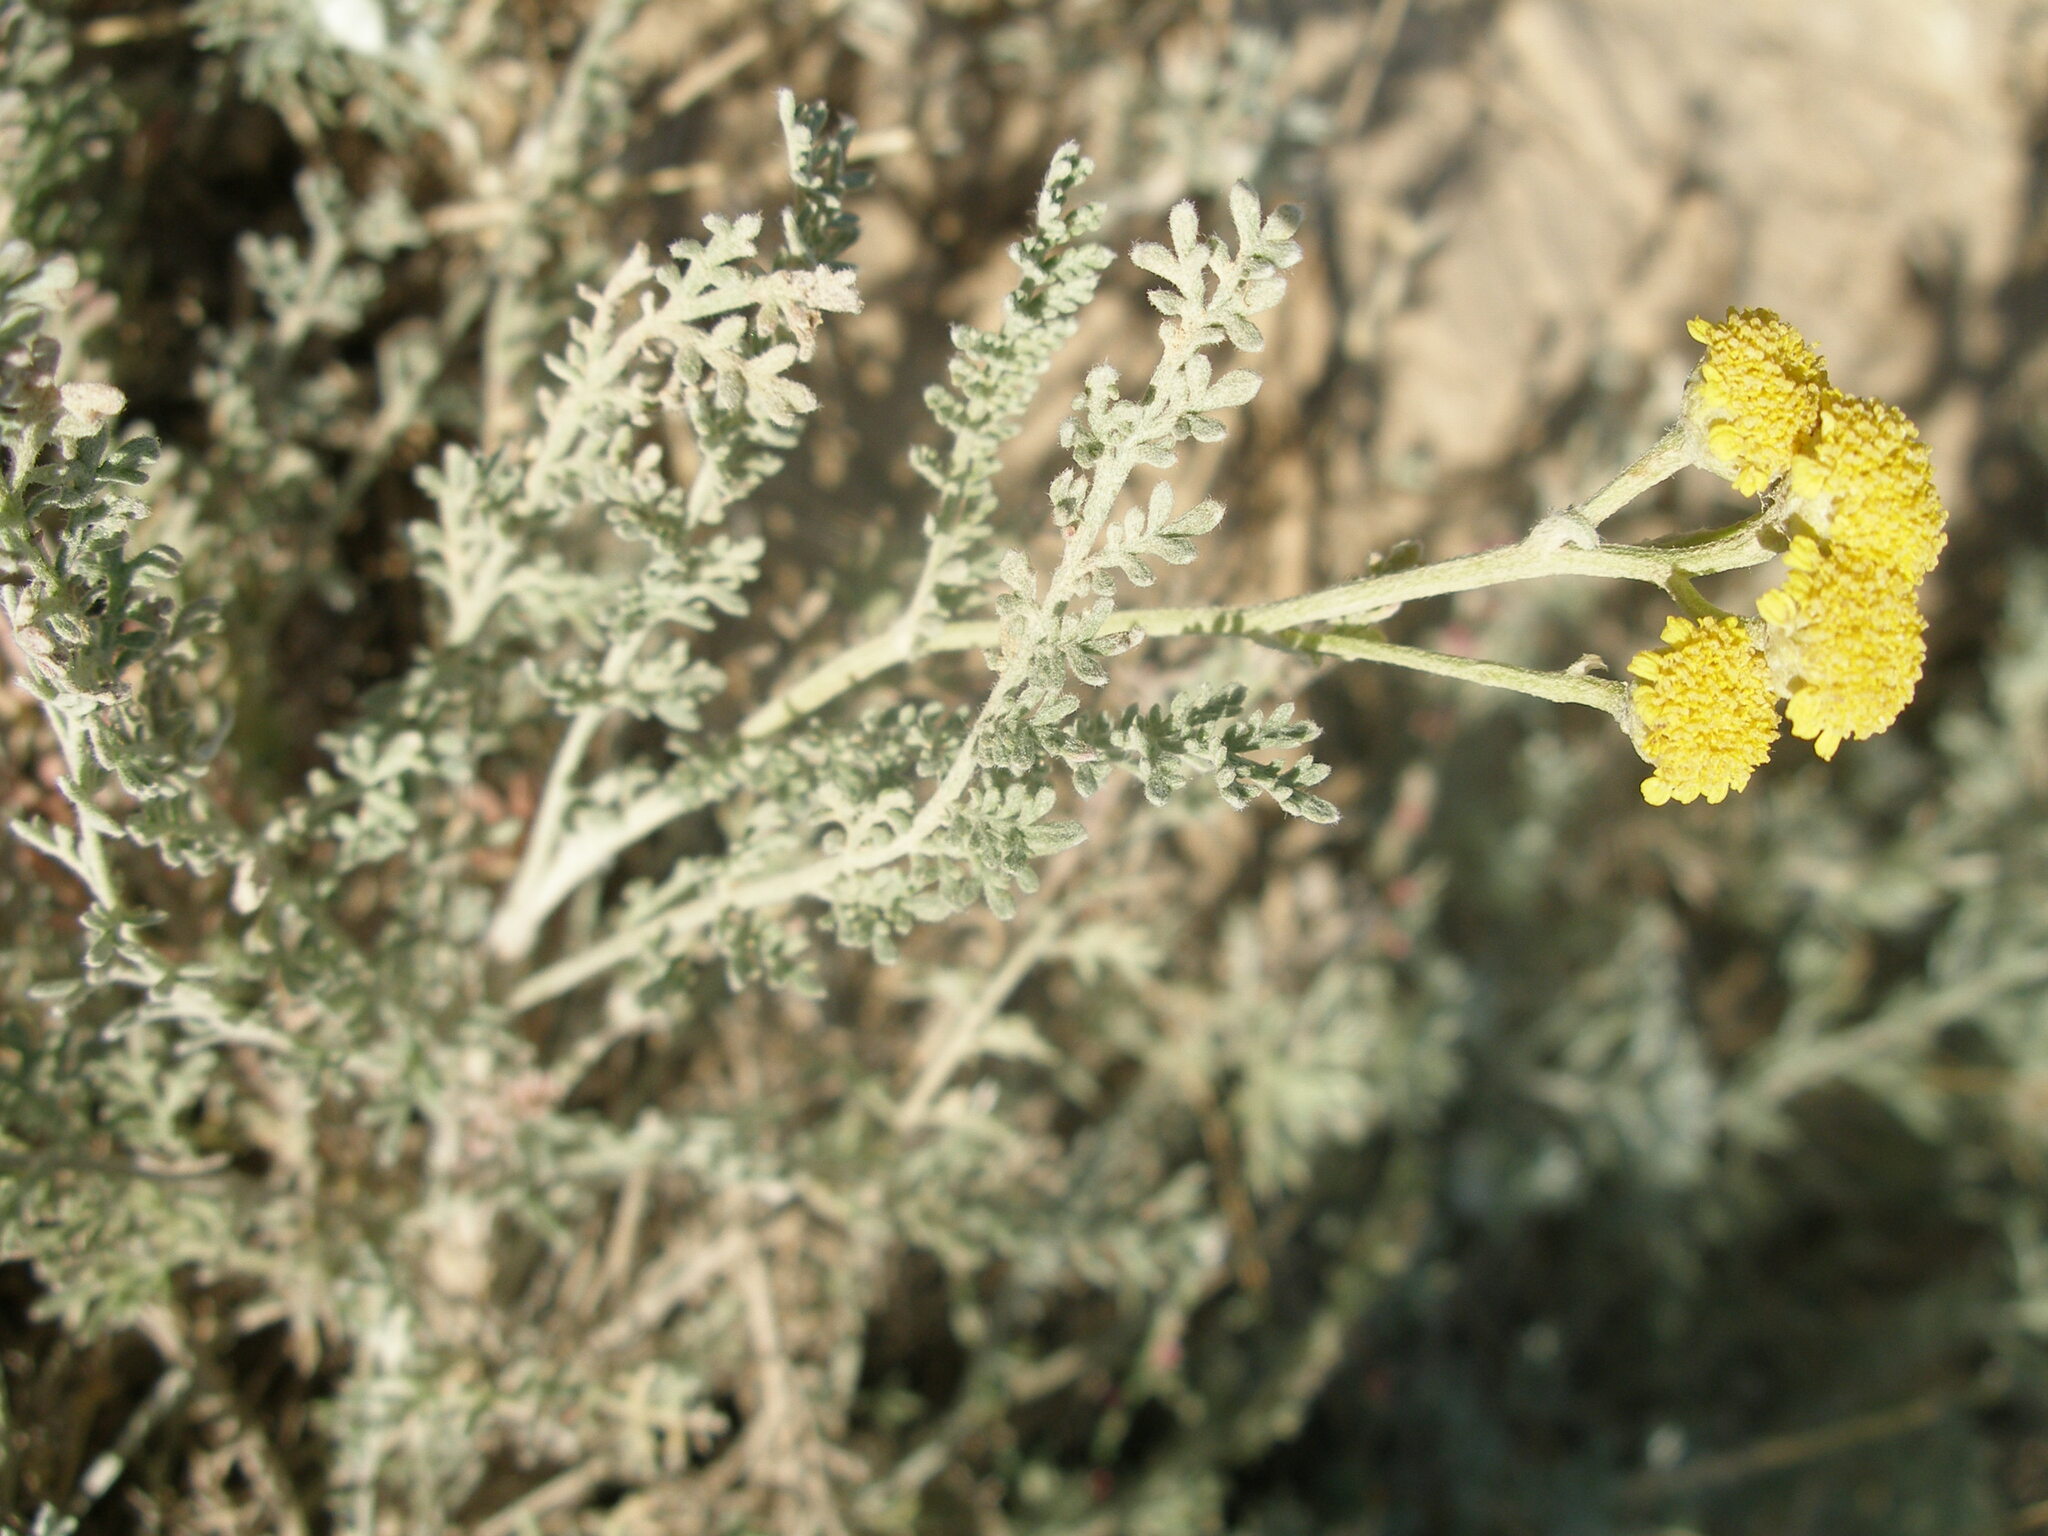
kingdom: Plantae
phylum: Tracheophyta
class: Magnoliopsida
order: Asterales
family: Asteraceae
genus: Tanacetum
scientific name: Tanacetum achilleifolium
